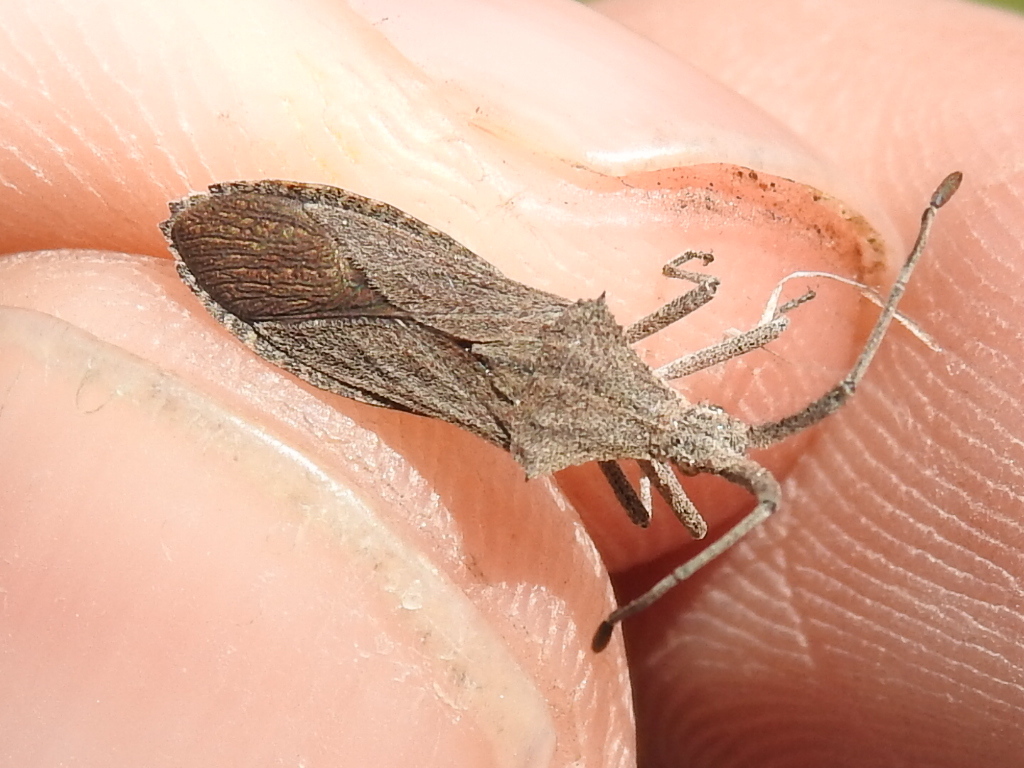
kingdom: Animalia
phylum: Arthropoda
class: Insecta
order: Hemiptera
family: Coreidae
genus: Chariesterus
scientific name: Chariesterus antennator
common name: Flat horned coreid
